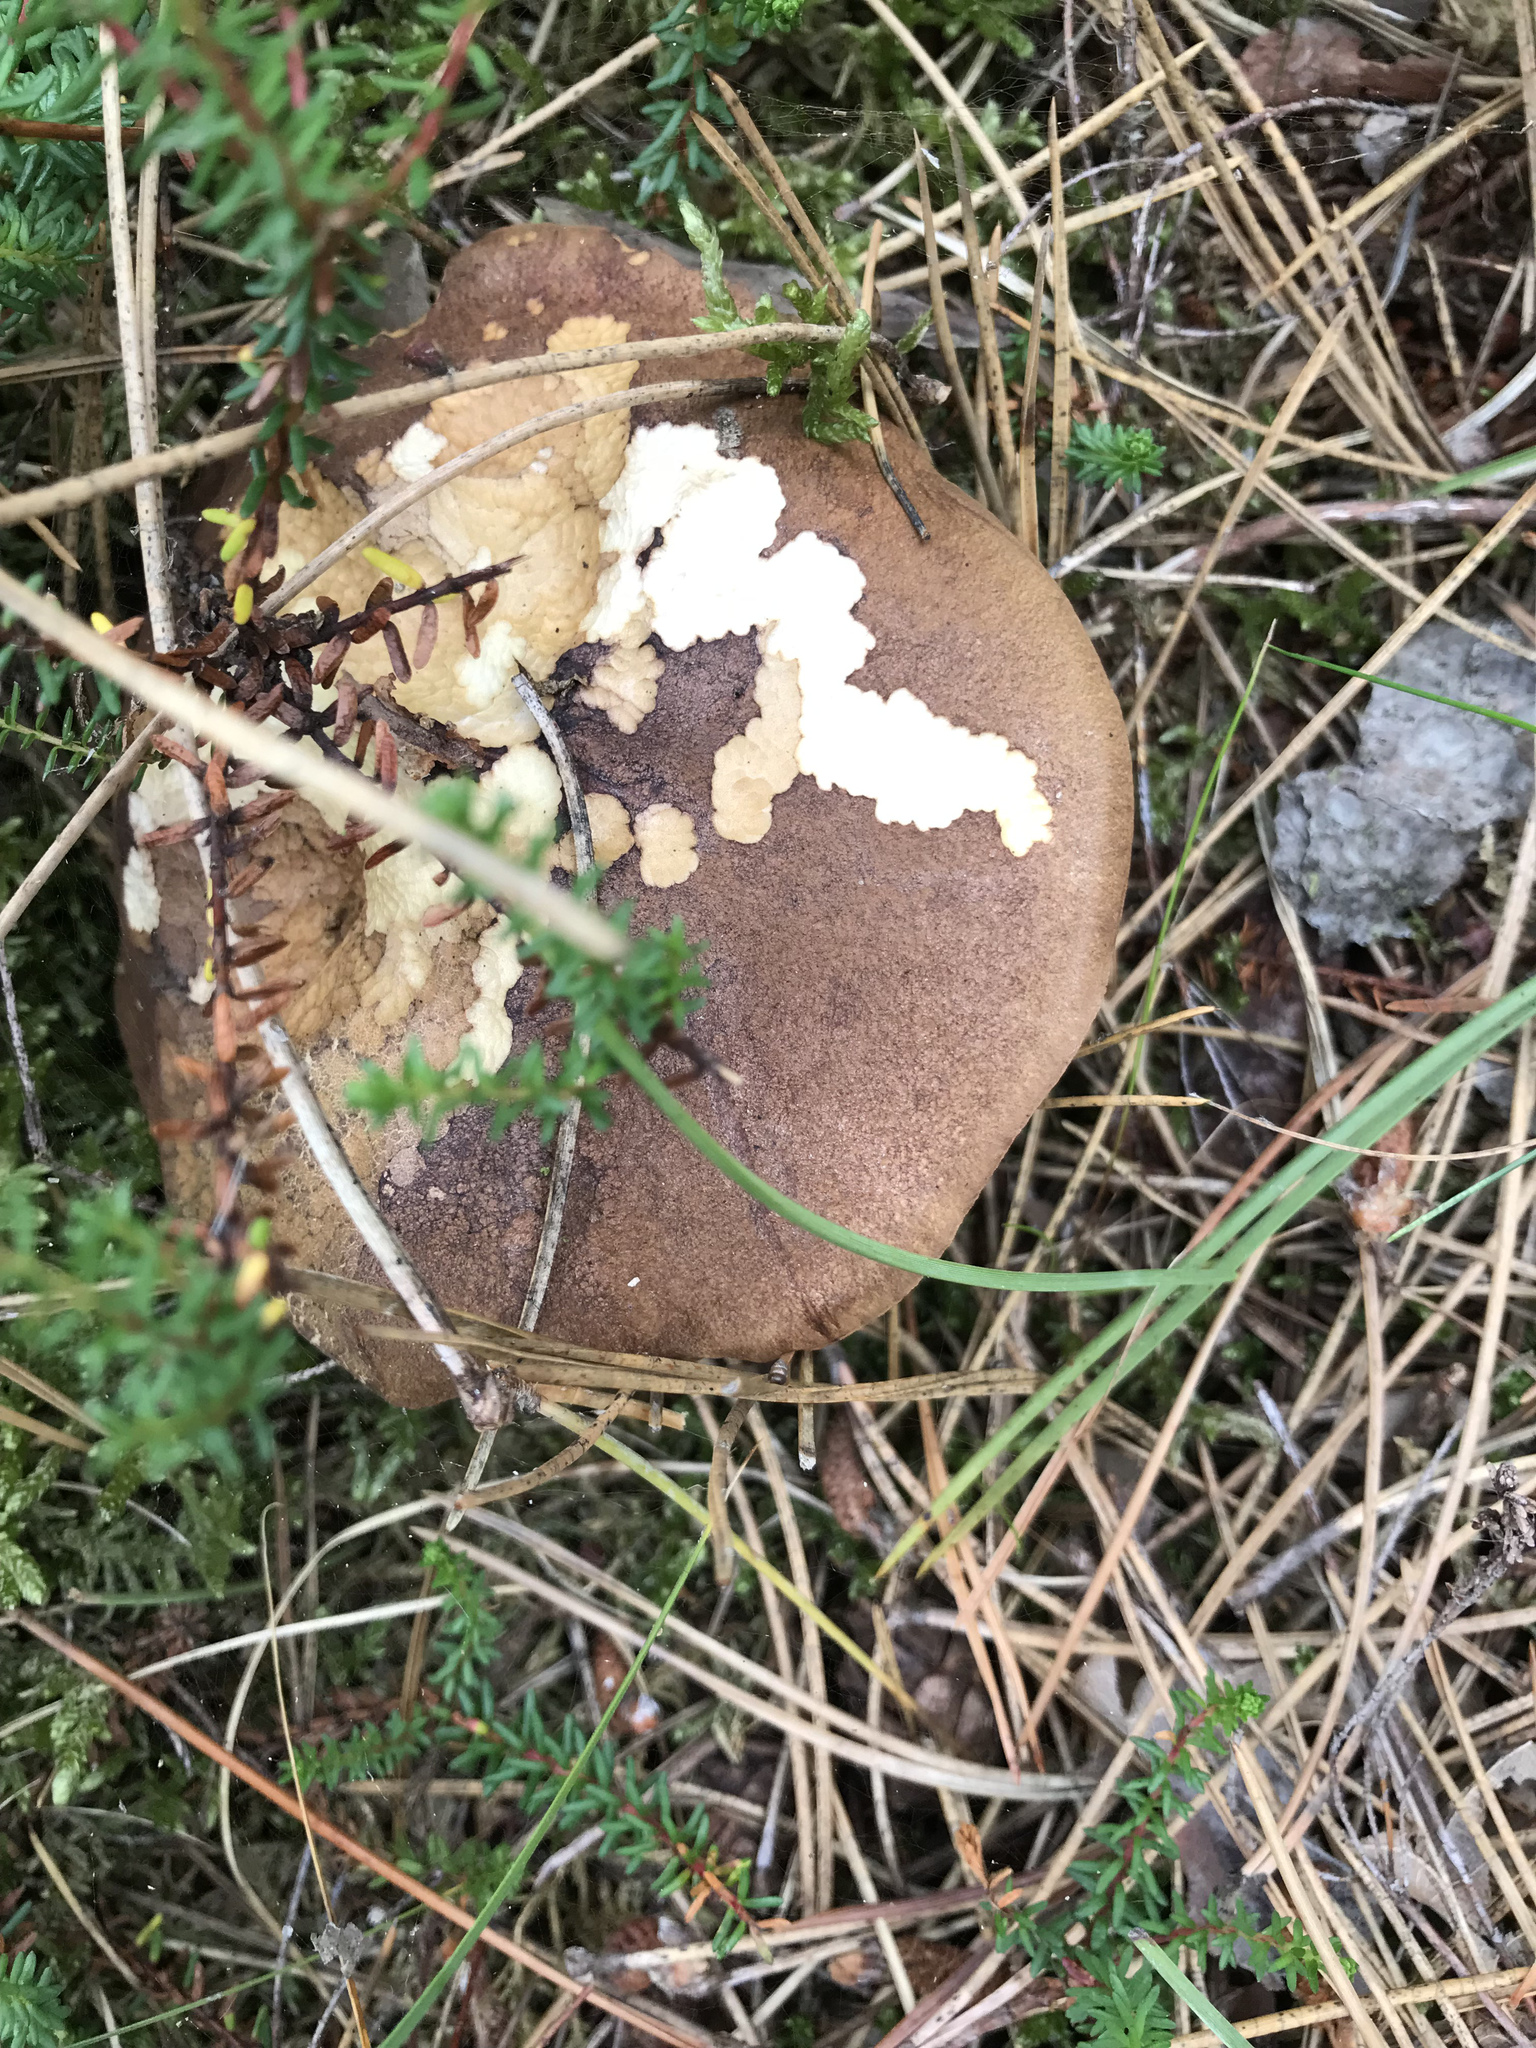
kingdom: Fungi
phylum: Basidiomycota
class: Agaricomycetes
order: Boletales
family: Boletaceae
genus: Imleria
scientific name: Imleria badia
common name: Bay bolete
